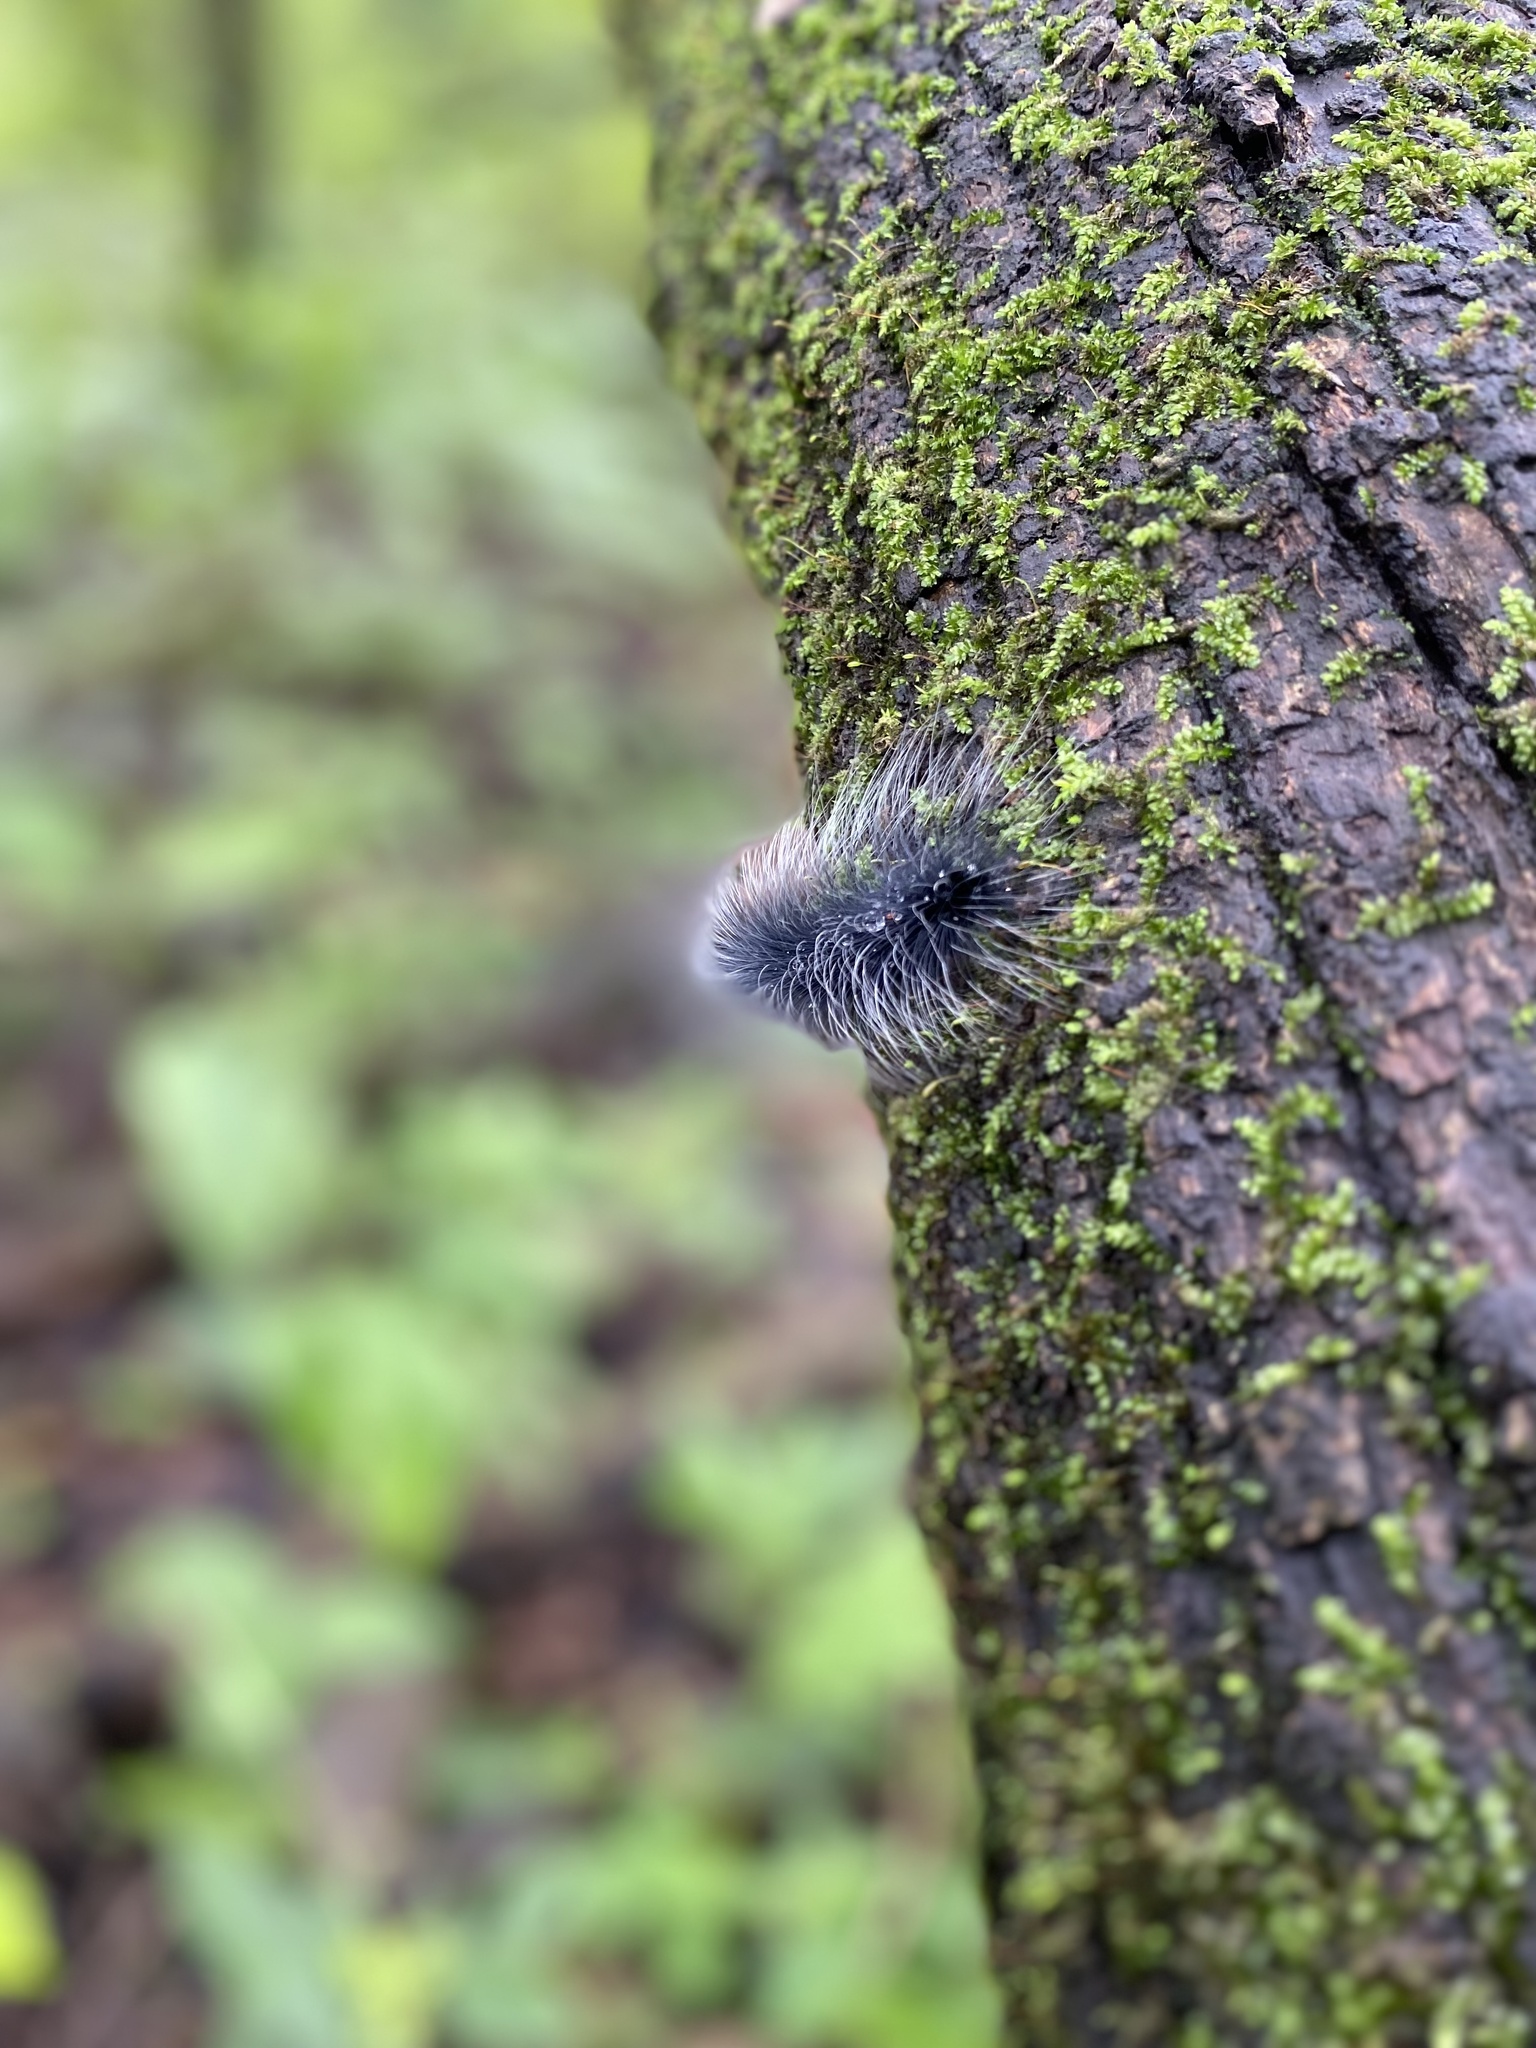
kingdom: Animalia
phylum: Arthropoda
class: Insecta
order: Lepidoptera
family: Erebidae
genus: Macrobrochis
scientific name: Macrobrochis gigas
